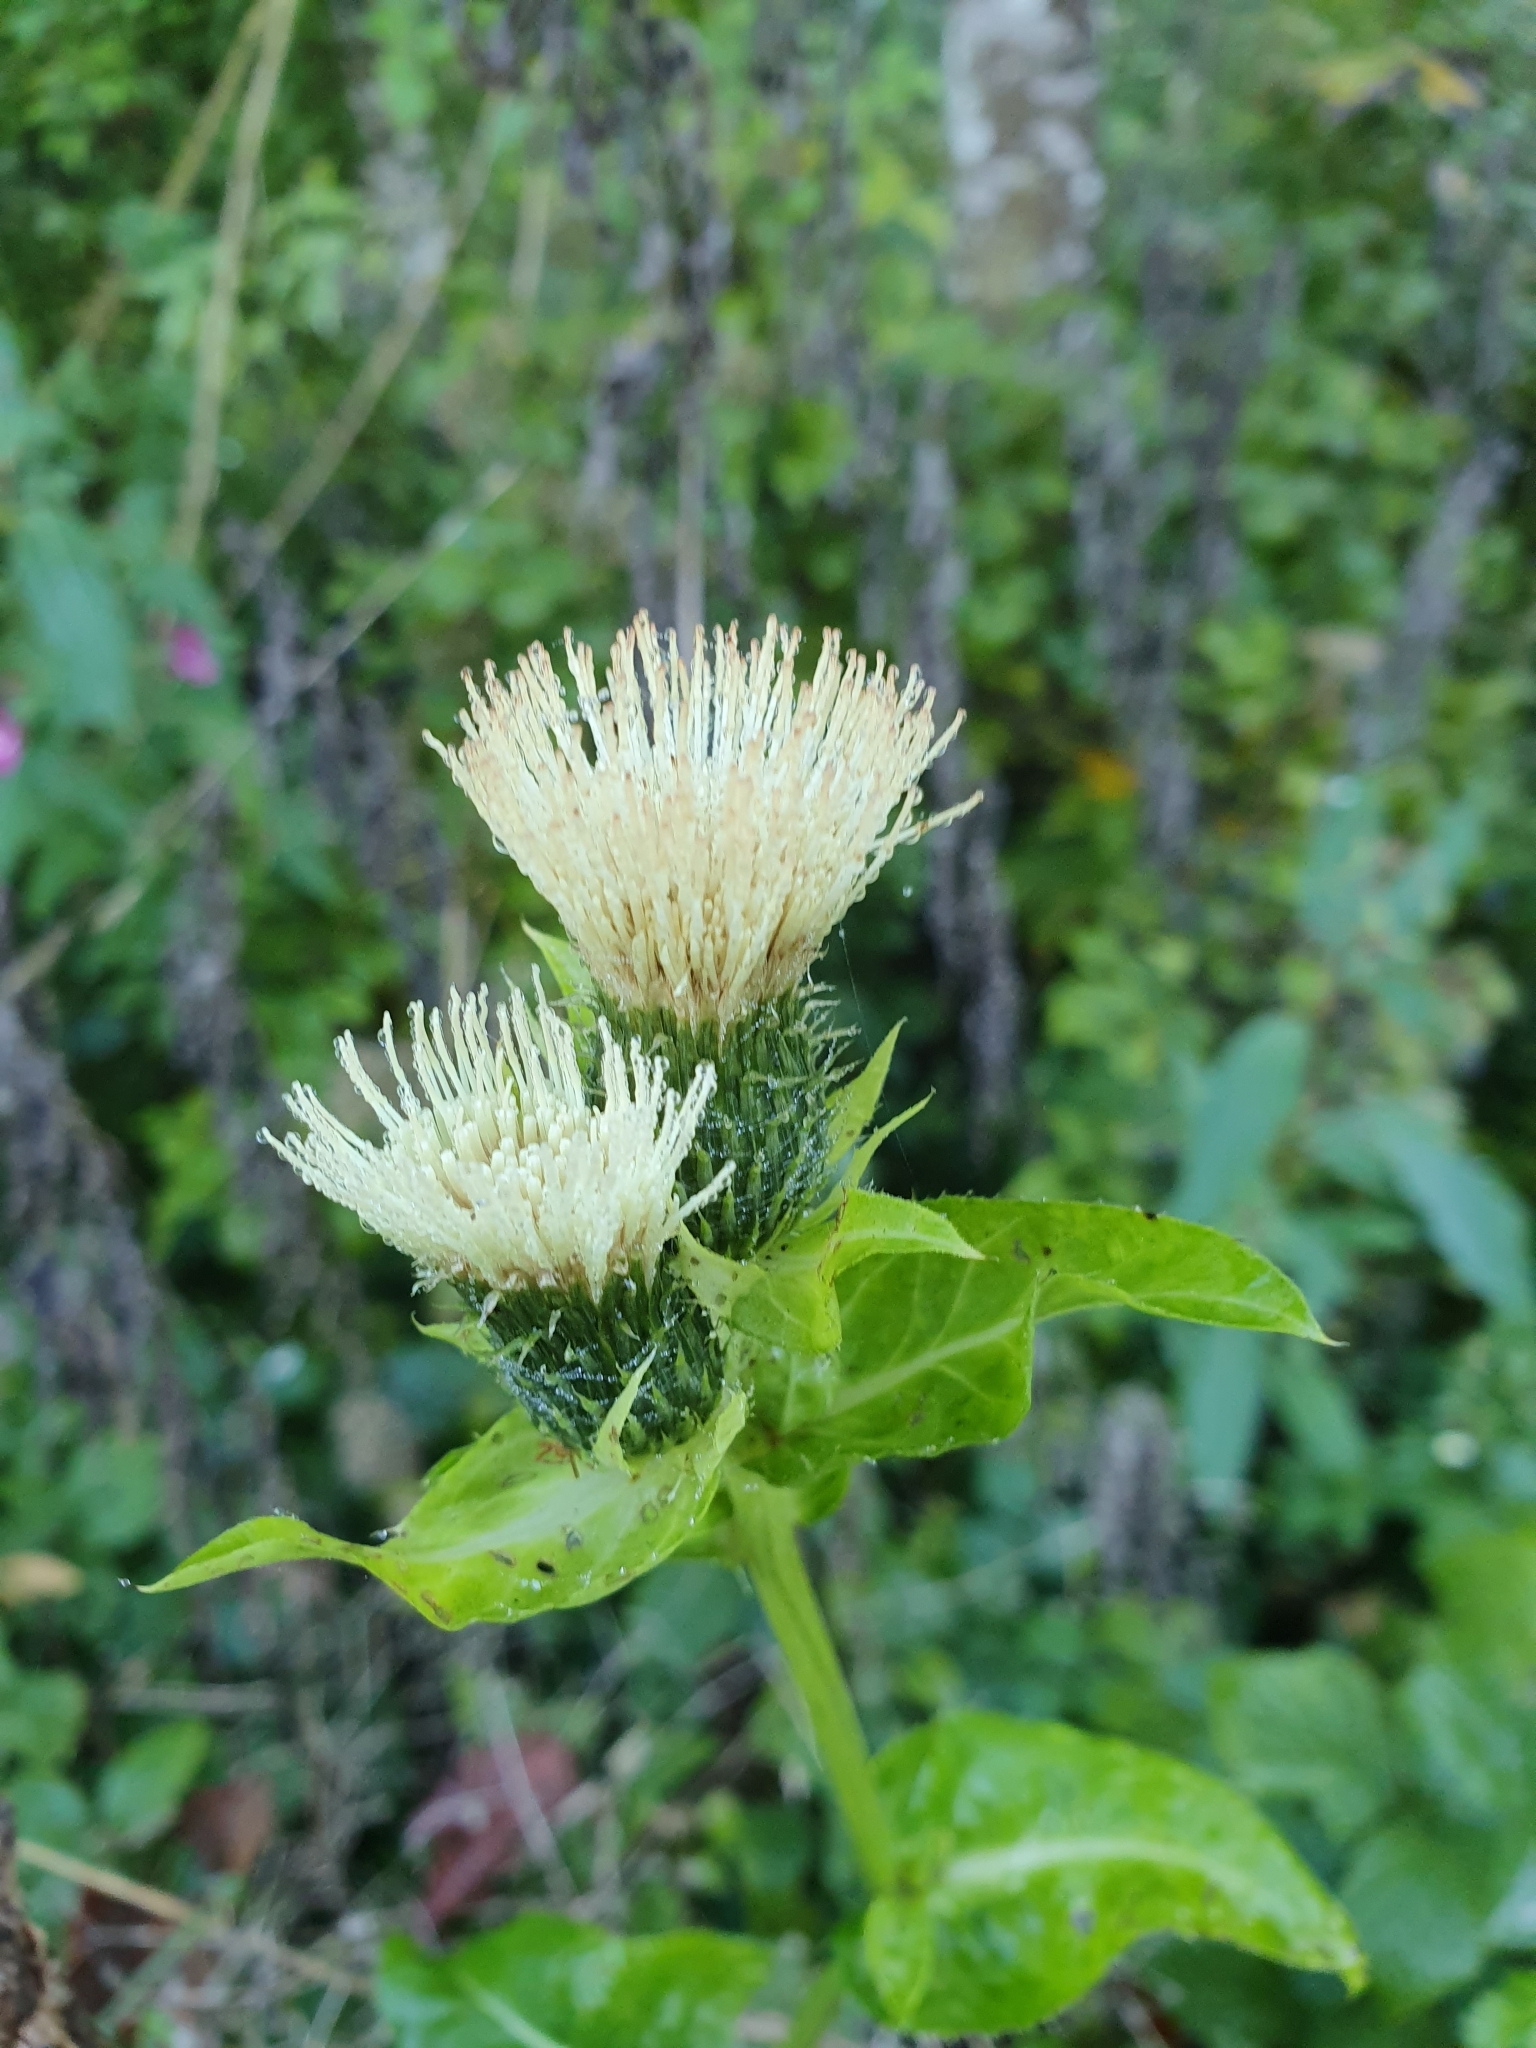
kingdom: Plantae
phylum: Tracheophyta
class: Magnoliopsida
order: Asterales
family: Asteraceae
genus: Cirsium
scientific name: Cirsium oleraceum
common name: Cabbage thistle
